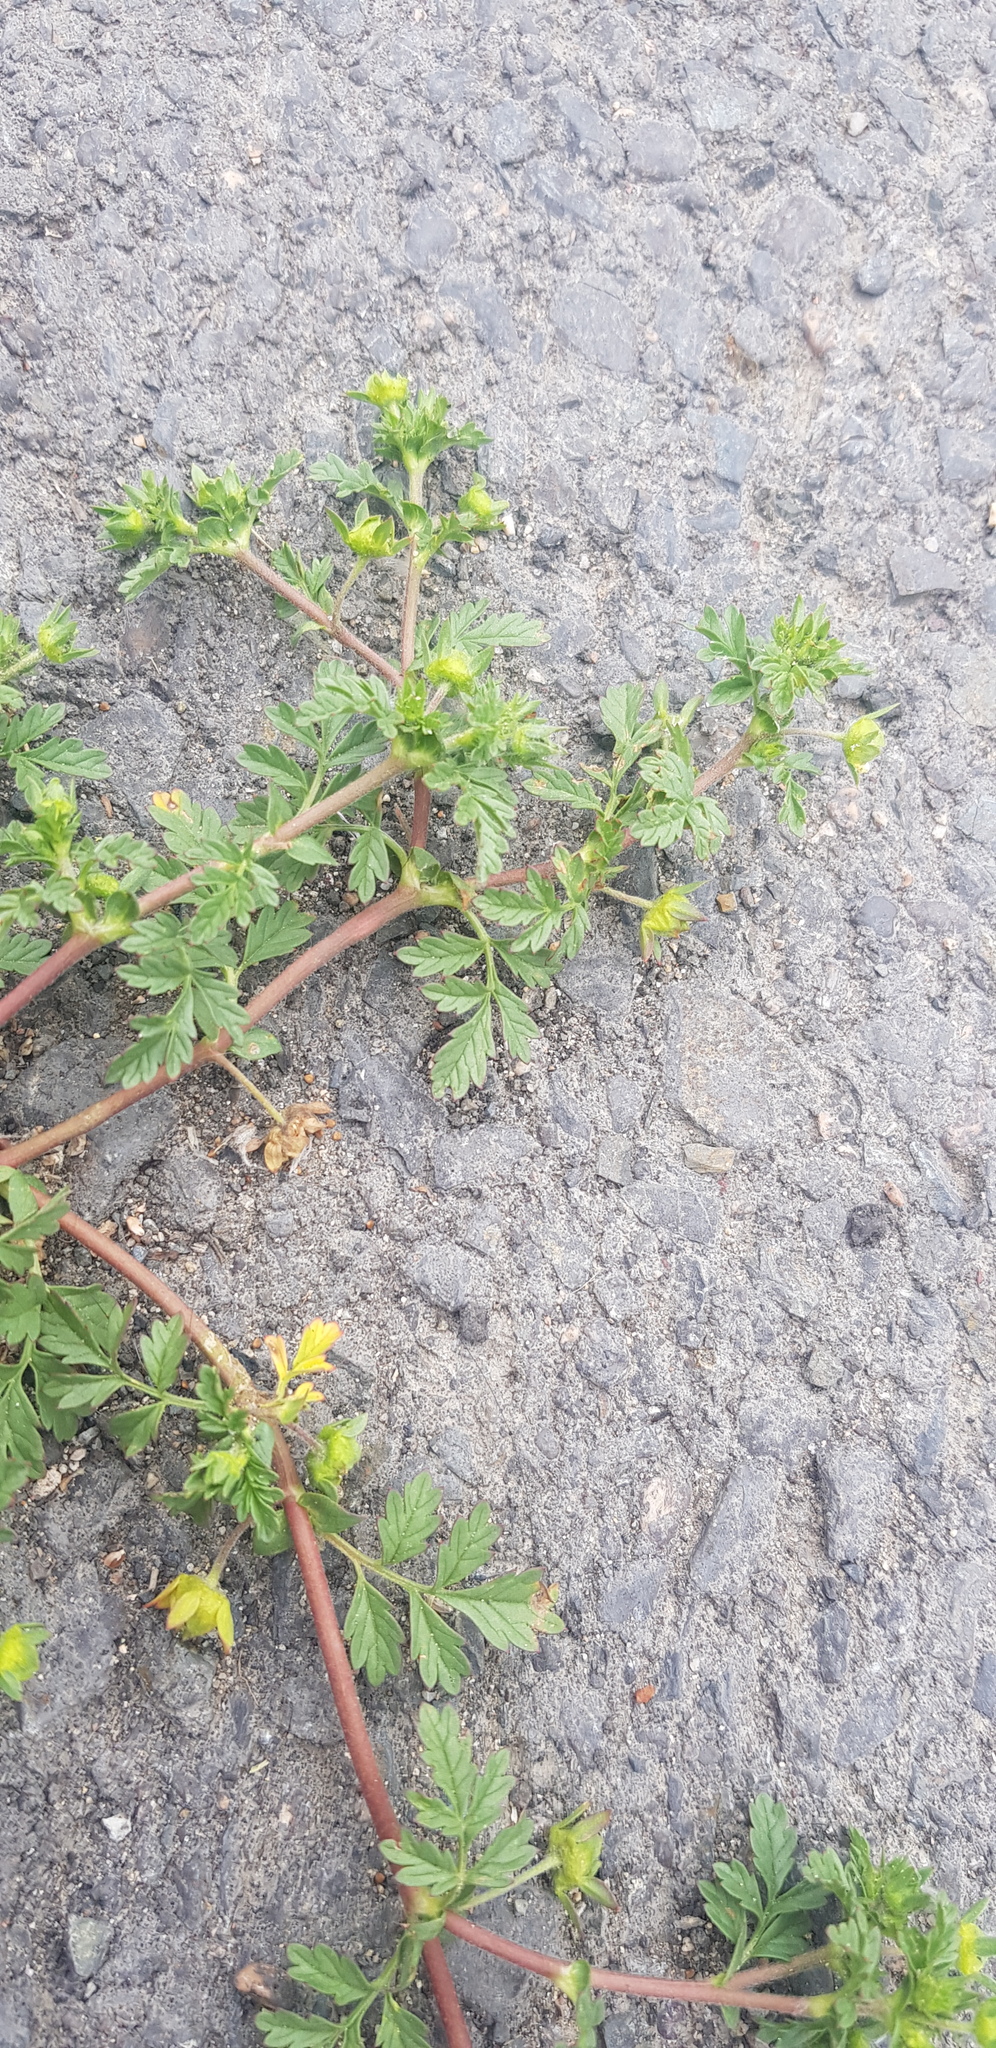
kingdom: Plantae
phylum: Tracheophyta
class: Magnoliopsida
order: Rosales
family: Rosaceae
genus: Potentilla
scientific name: Potentilla supina
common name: Prostrate cinquefoil
